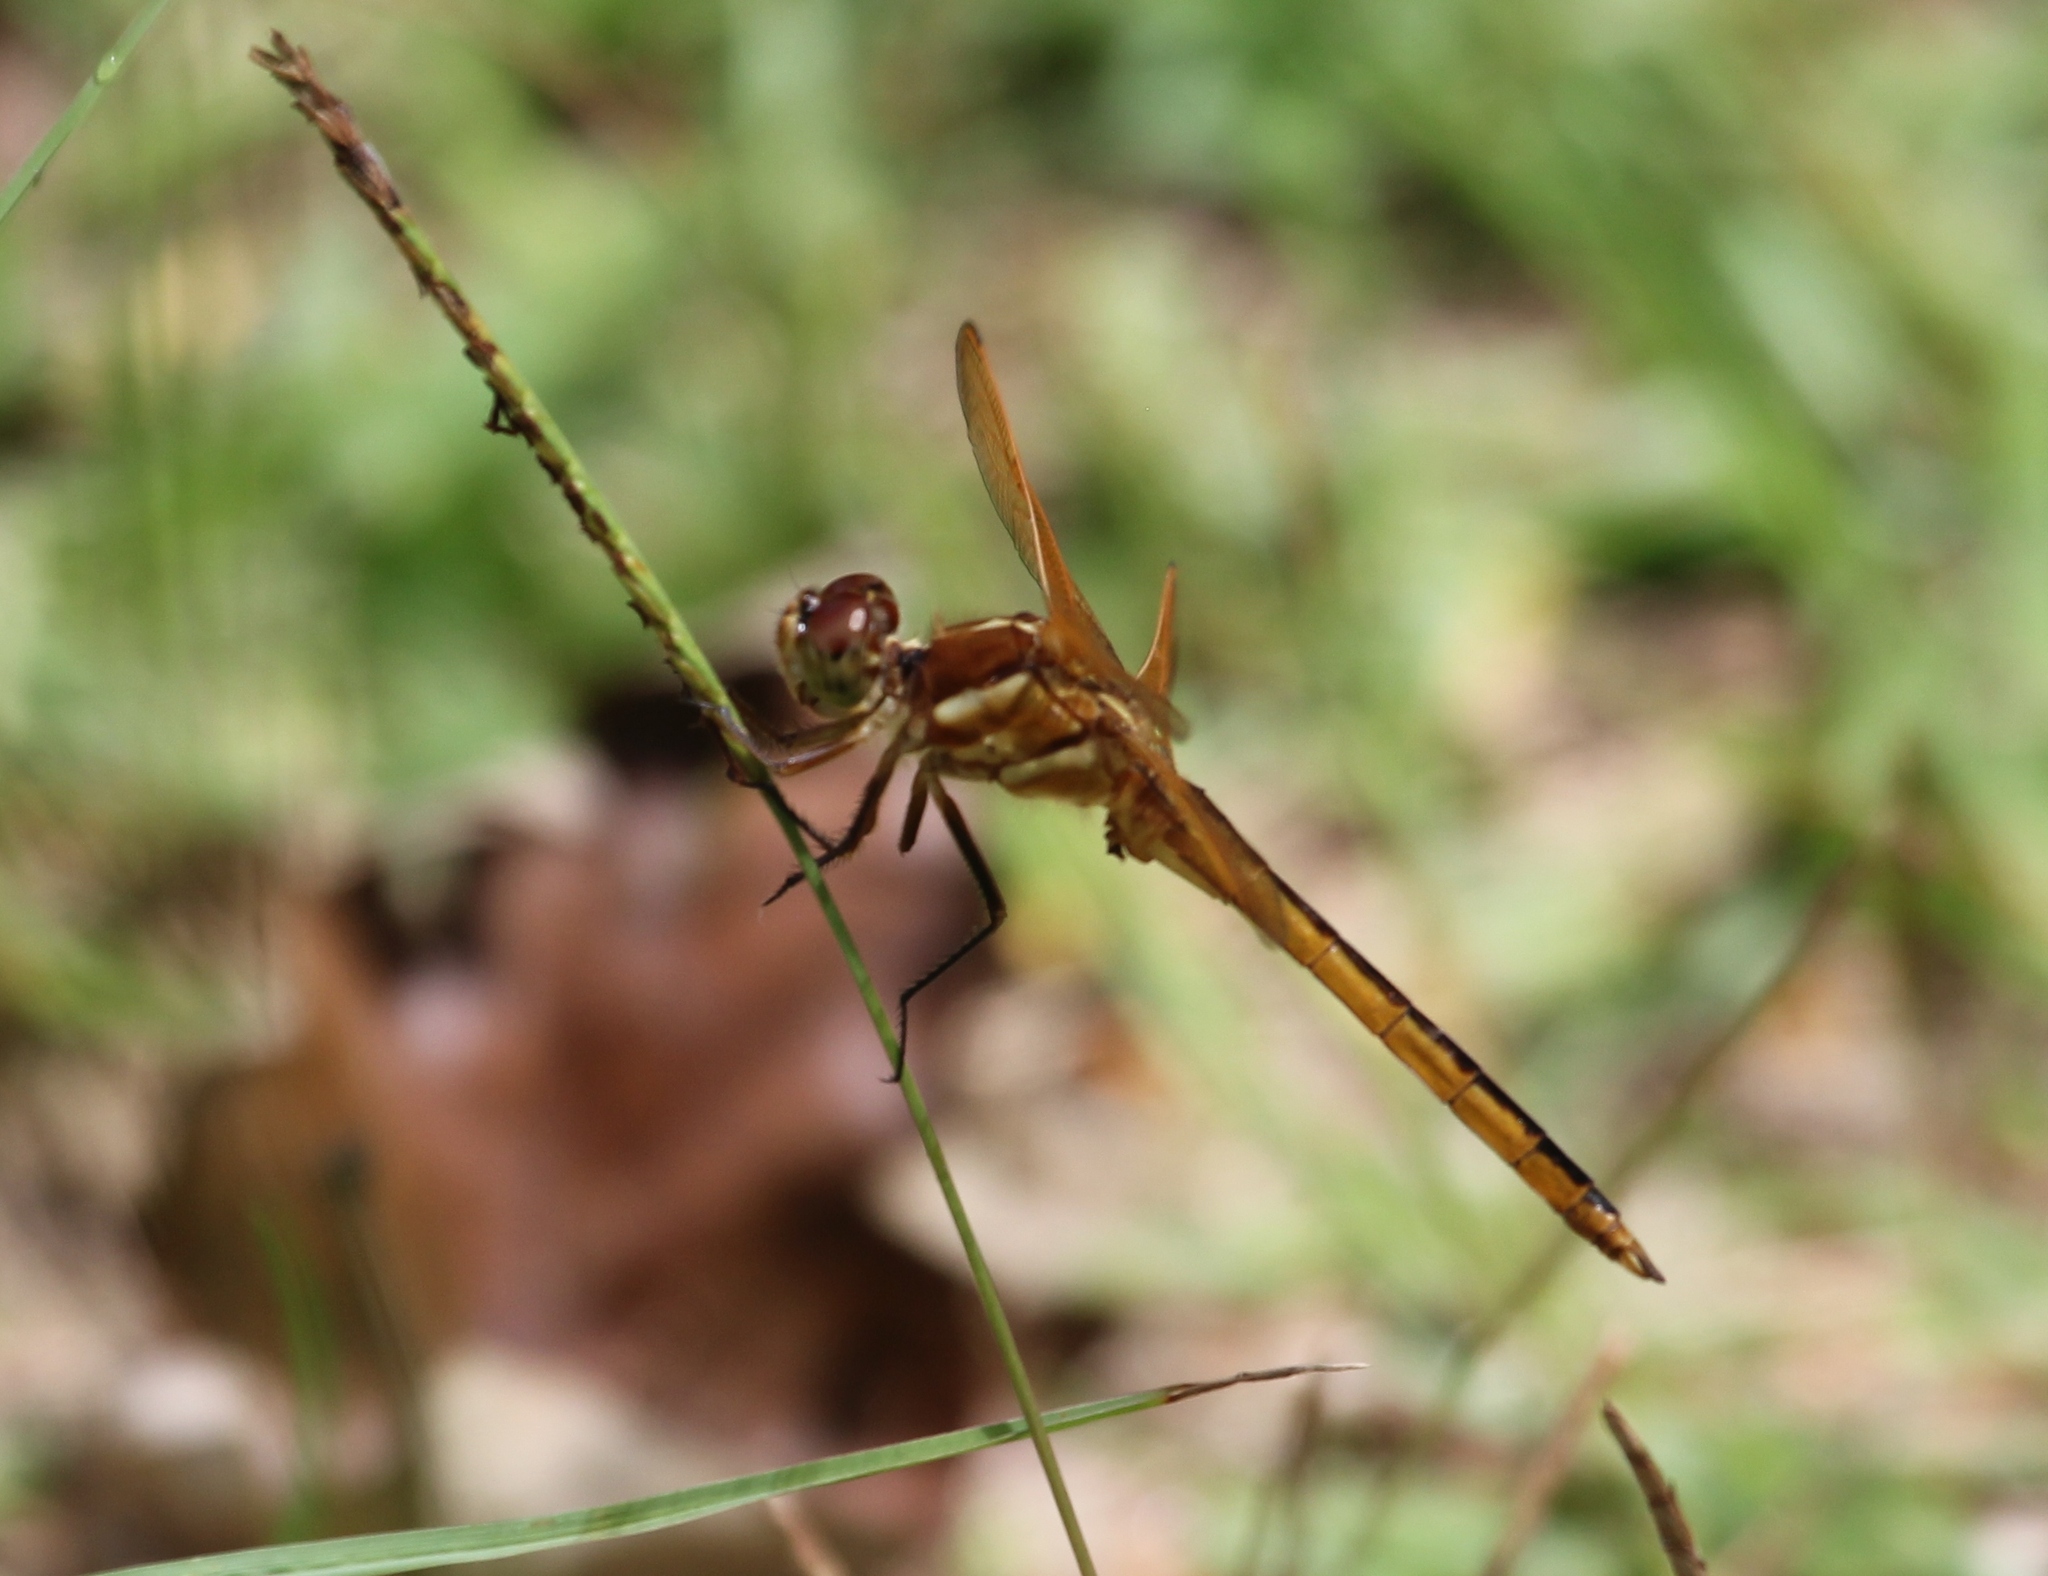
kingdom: Animalia
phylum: Arthropoda
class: Insecta
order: Odonata
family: Libellulidae
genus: Libellula
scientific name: Libellula auripennis
